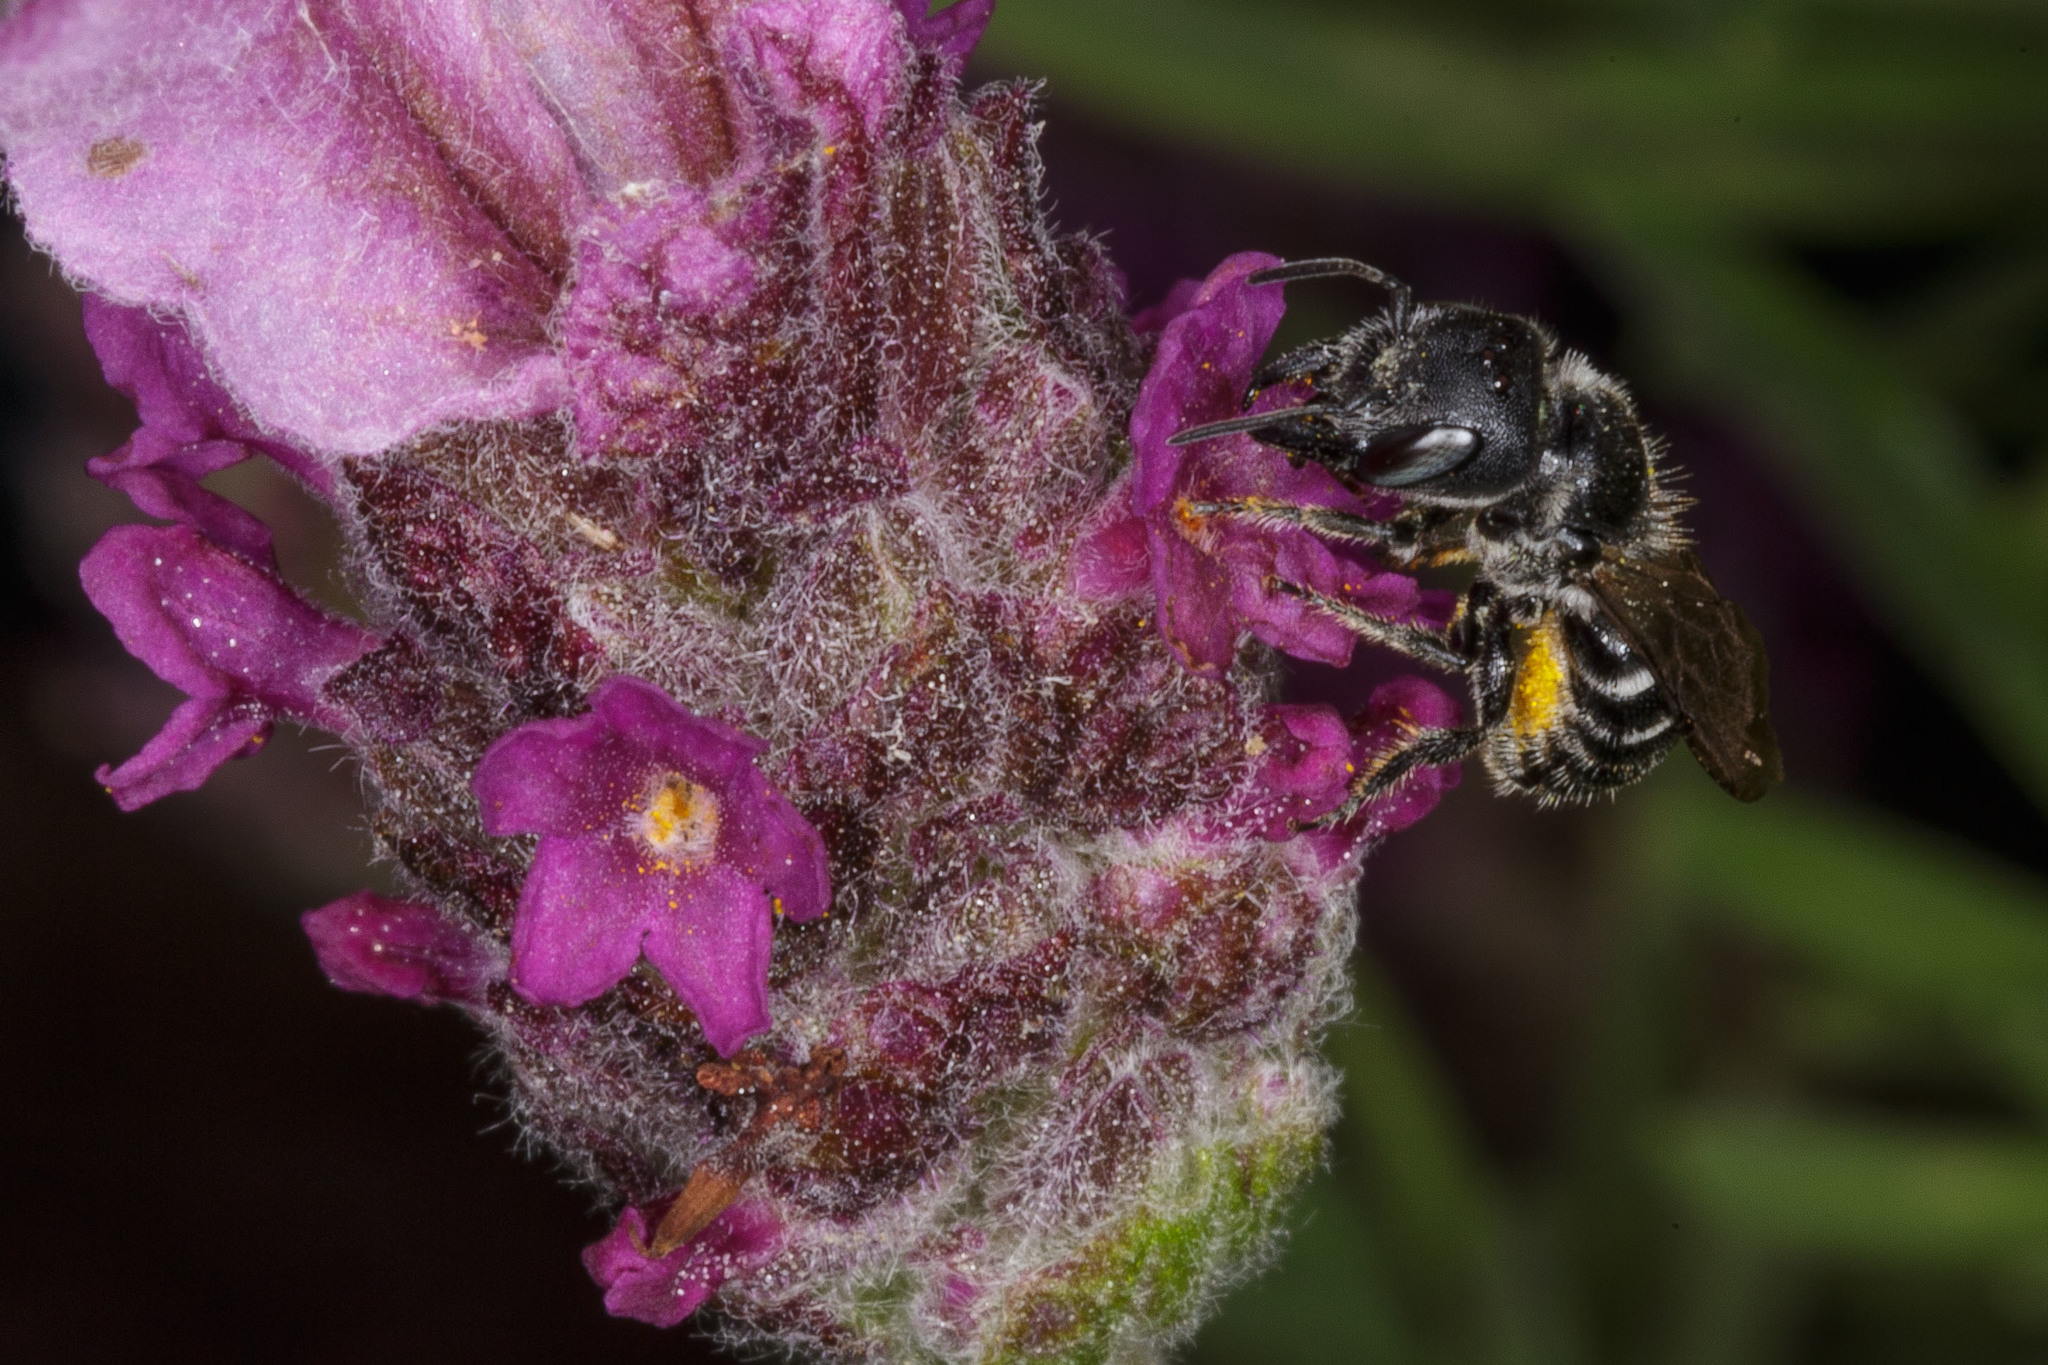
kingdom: Animalia
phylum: Arthropoda
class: Insecta
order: Hymenoptera
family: Megachilidae
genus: Protosmia
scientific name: Protosmia rubifloris
